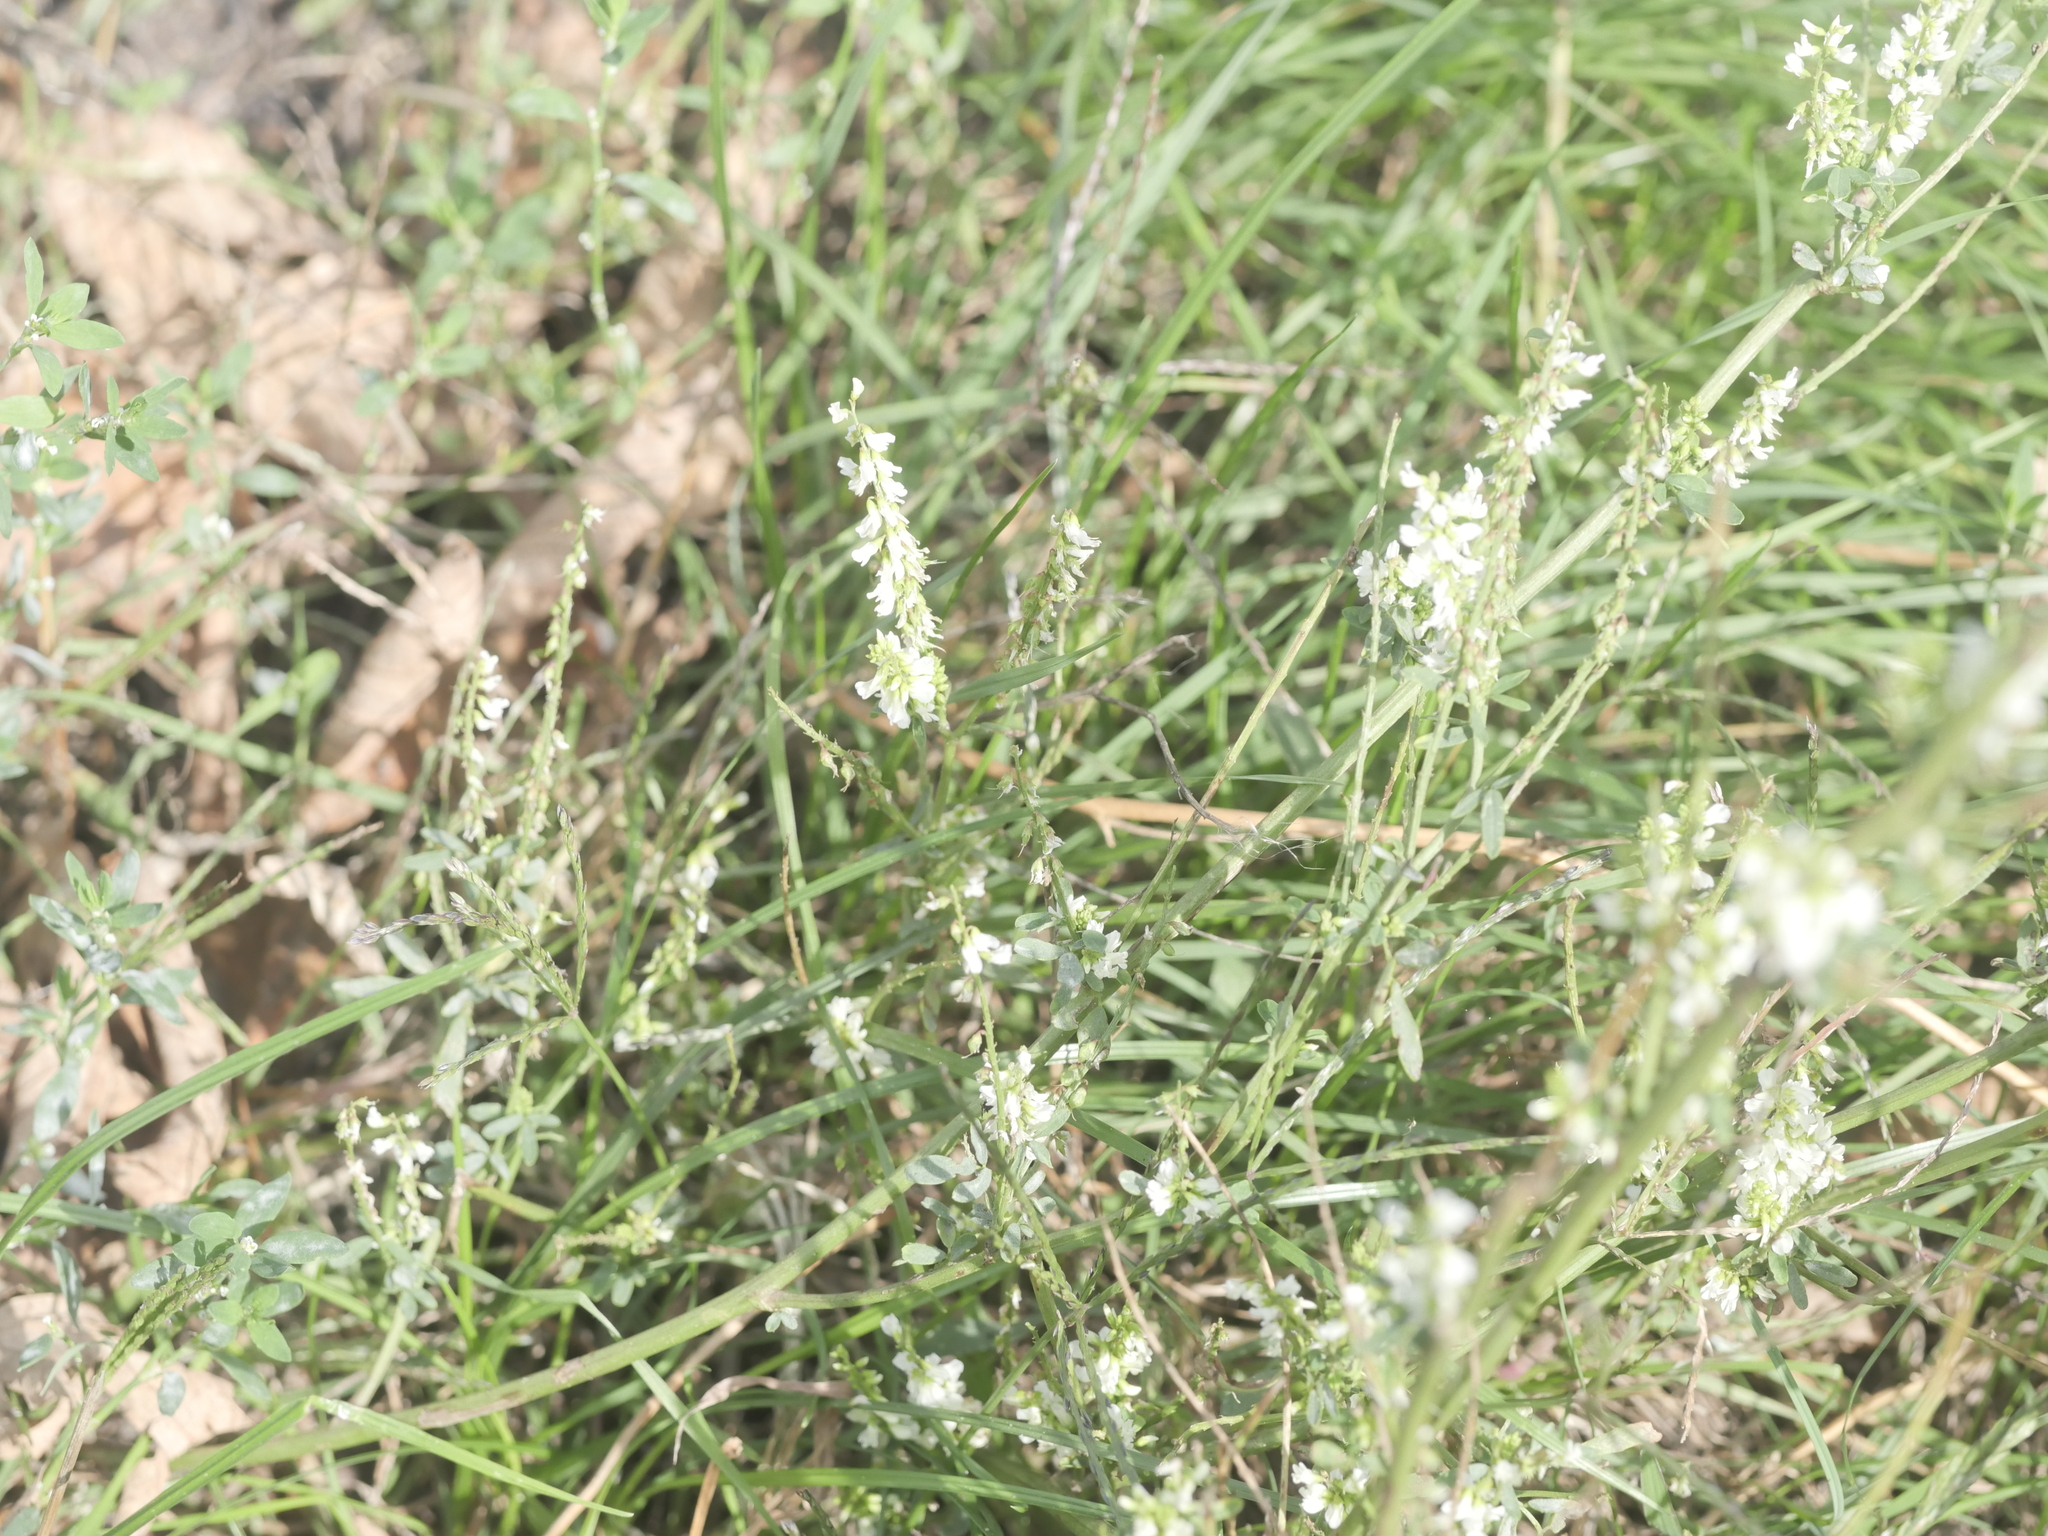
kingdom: Plantae
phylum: Tracheophyta
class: Magnoliopsida
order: Fabales
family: Fabaceae
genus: Melilotus
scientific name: Melilotus albus
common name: White melilot
